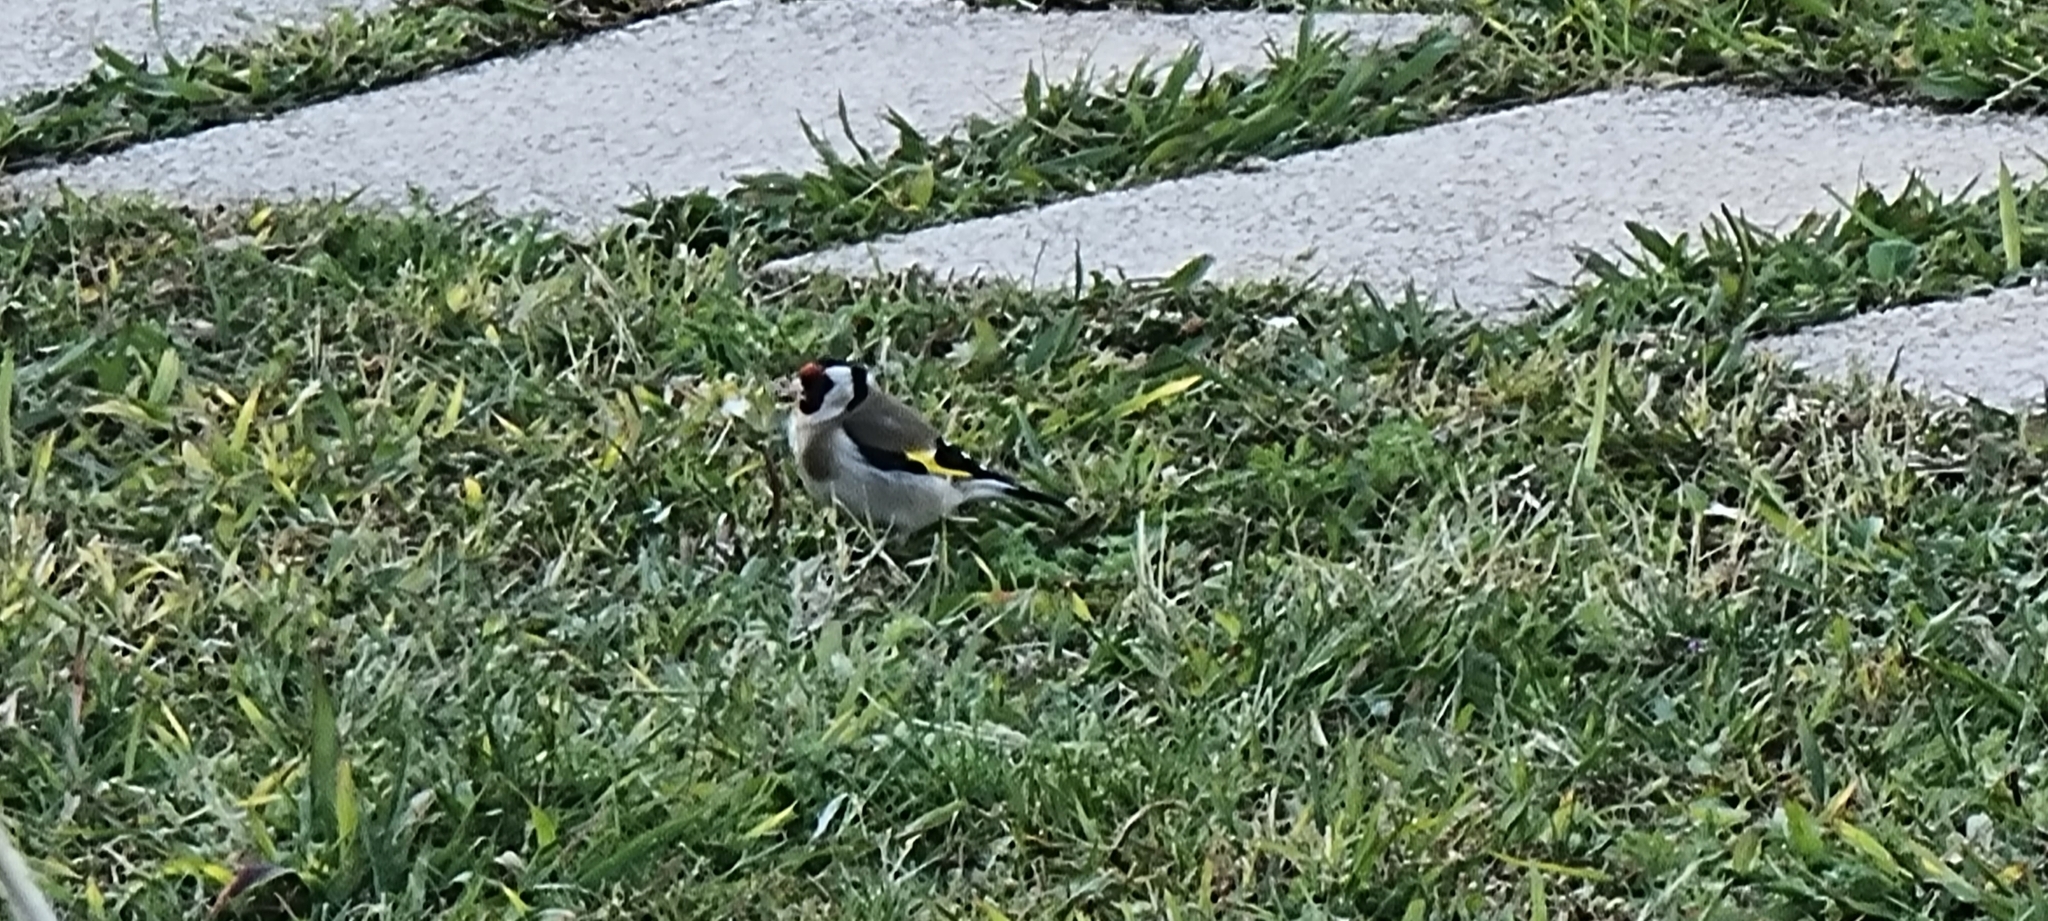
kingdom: Animalia
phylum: Chordata
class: Aves
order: Passeriformes
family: Fringillidae
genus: Carduelis
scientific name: Carduelis carduelis
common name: European goldfinch
